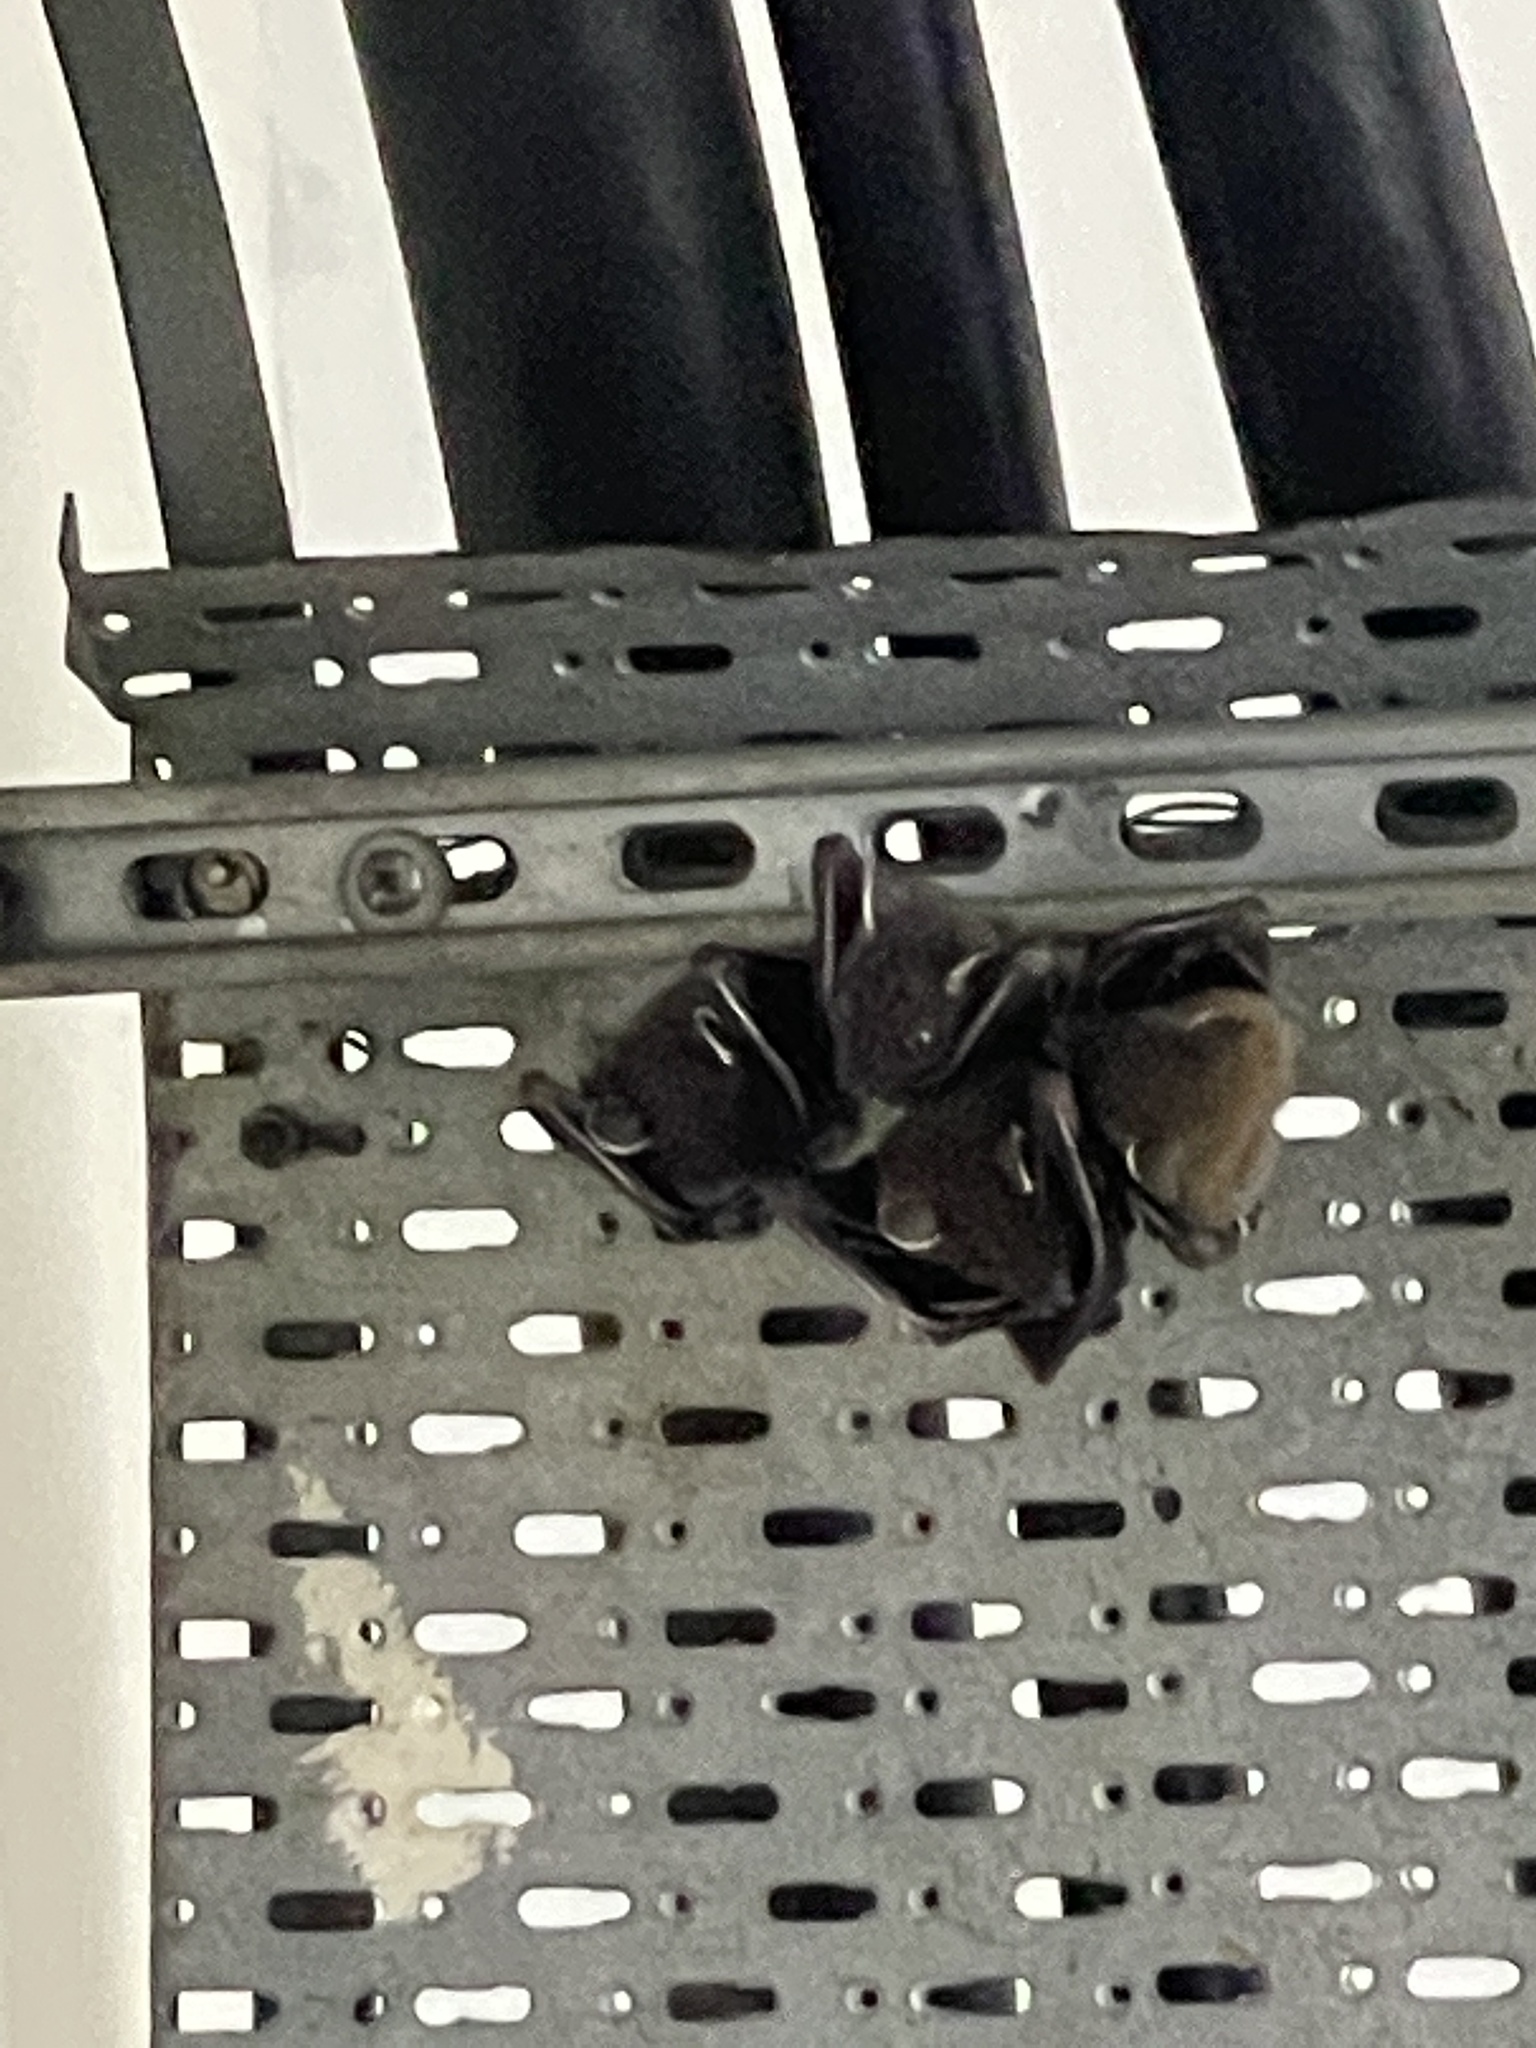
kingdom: Animalia
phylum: Chordata
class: Mammalia
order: Chiroptera
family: Pteropodidae
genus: Cynopterus
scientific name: Cynopterus sphinx
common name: Greater short-nosed fruit bat
